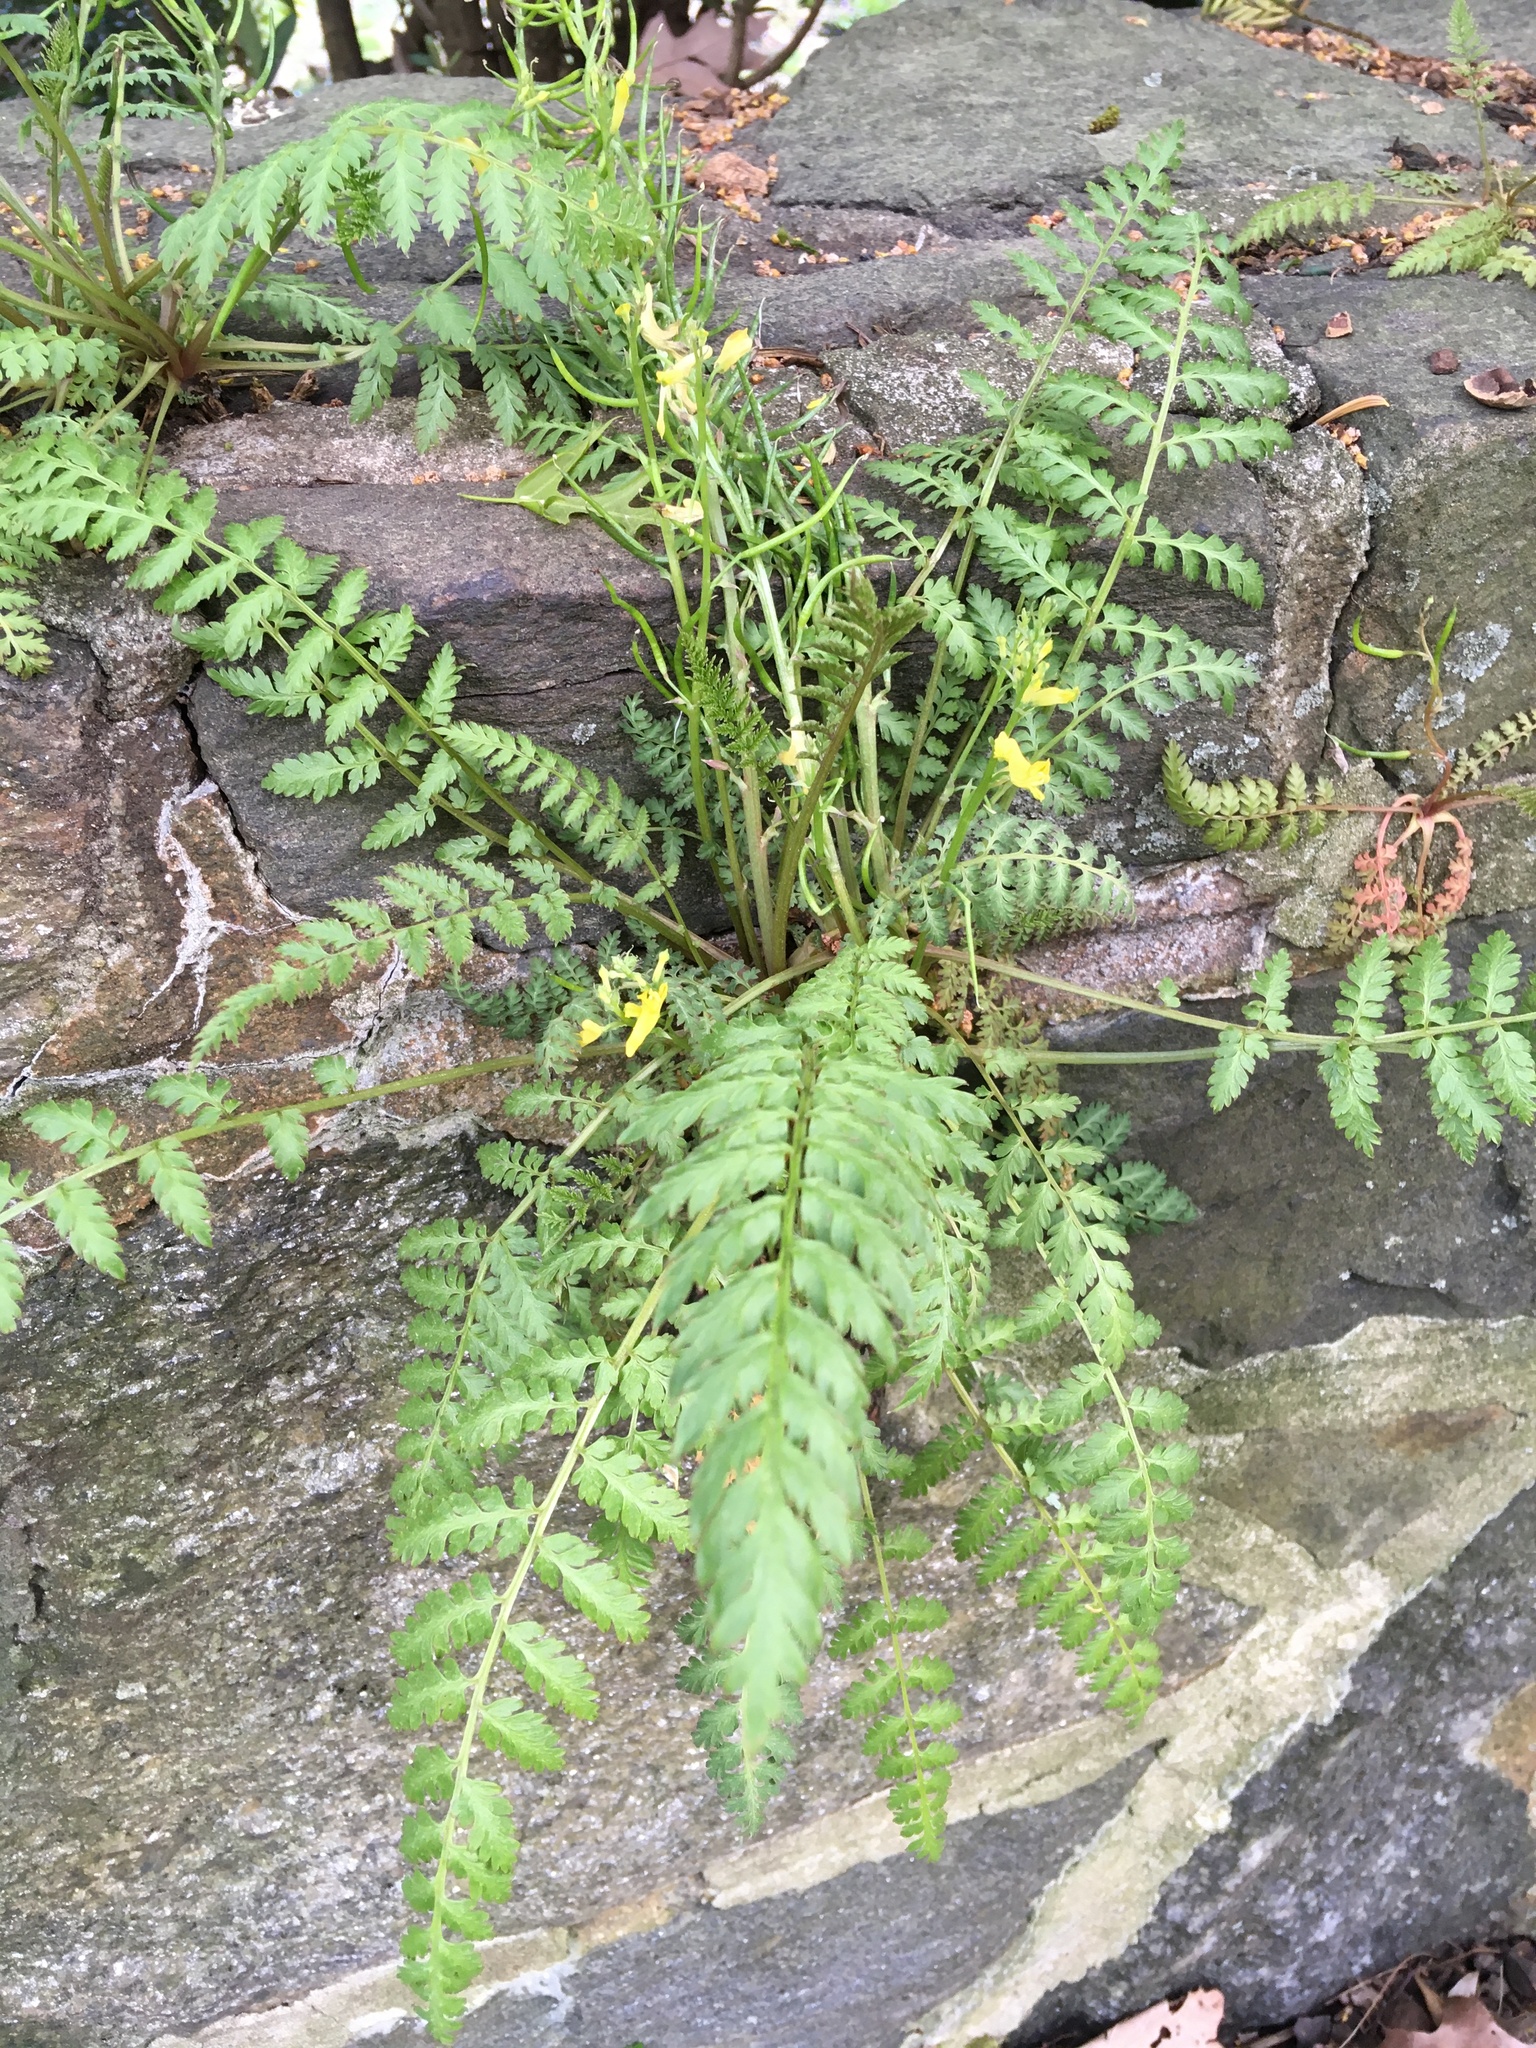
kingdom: Plantae
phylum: Tracheophyta
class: Magnoliopsida
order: Ranunculales
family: Papaveraceae
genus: Corydalis
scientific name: Corydalis cheilanthifolia
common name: Fern-leaved corydalis
